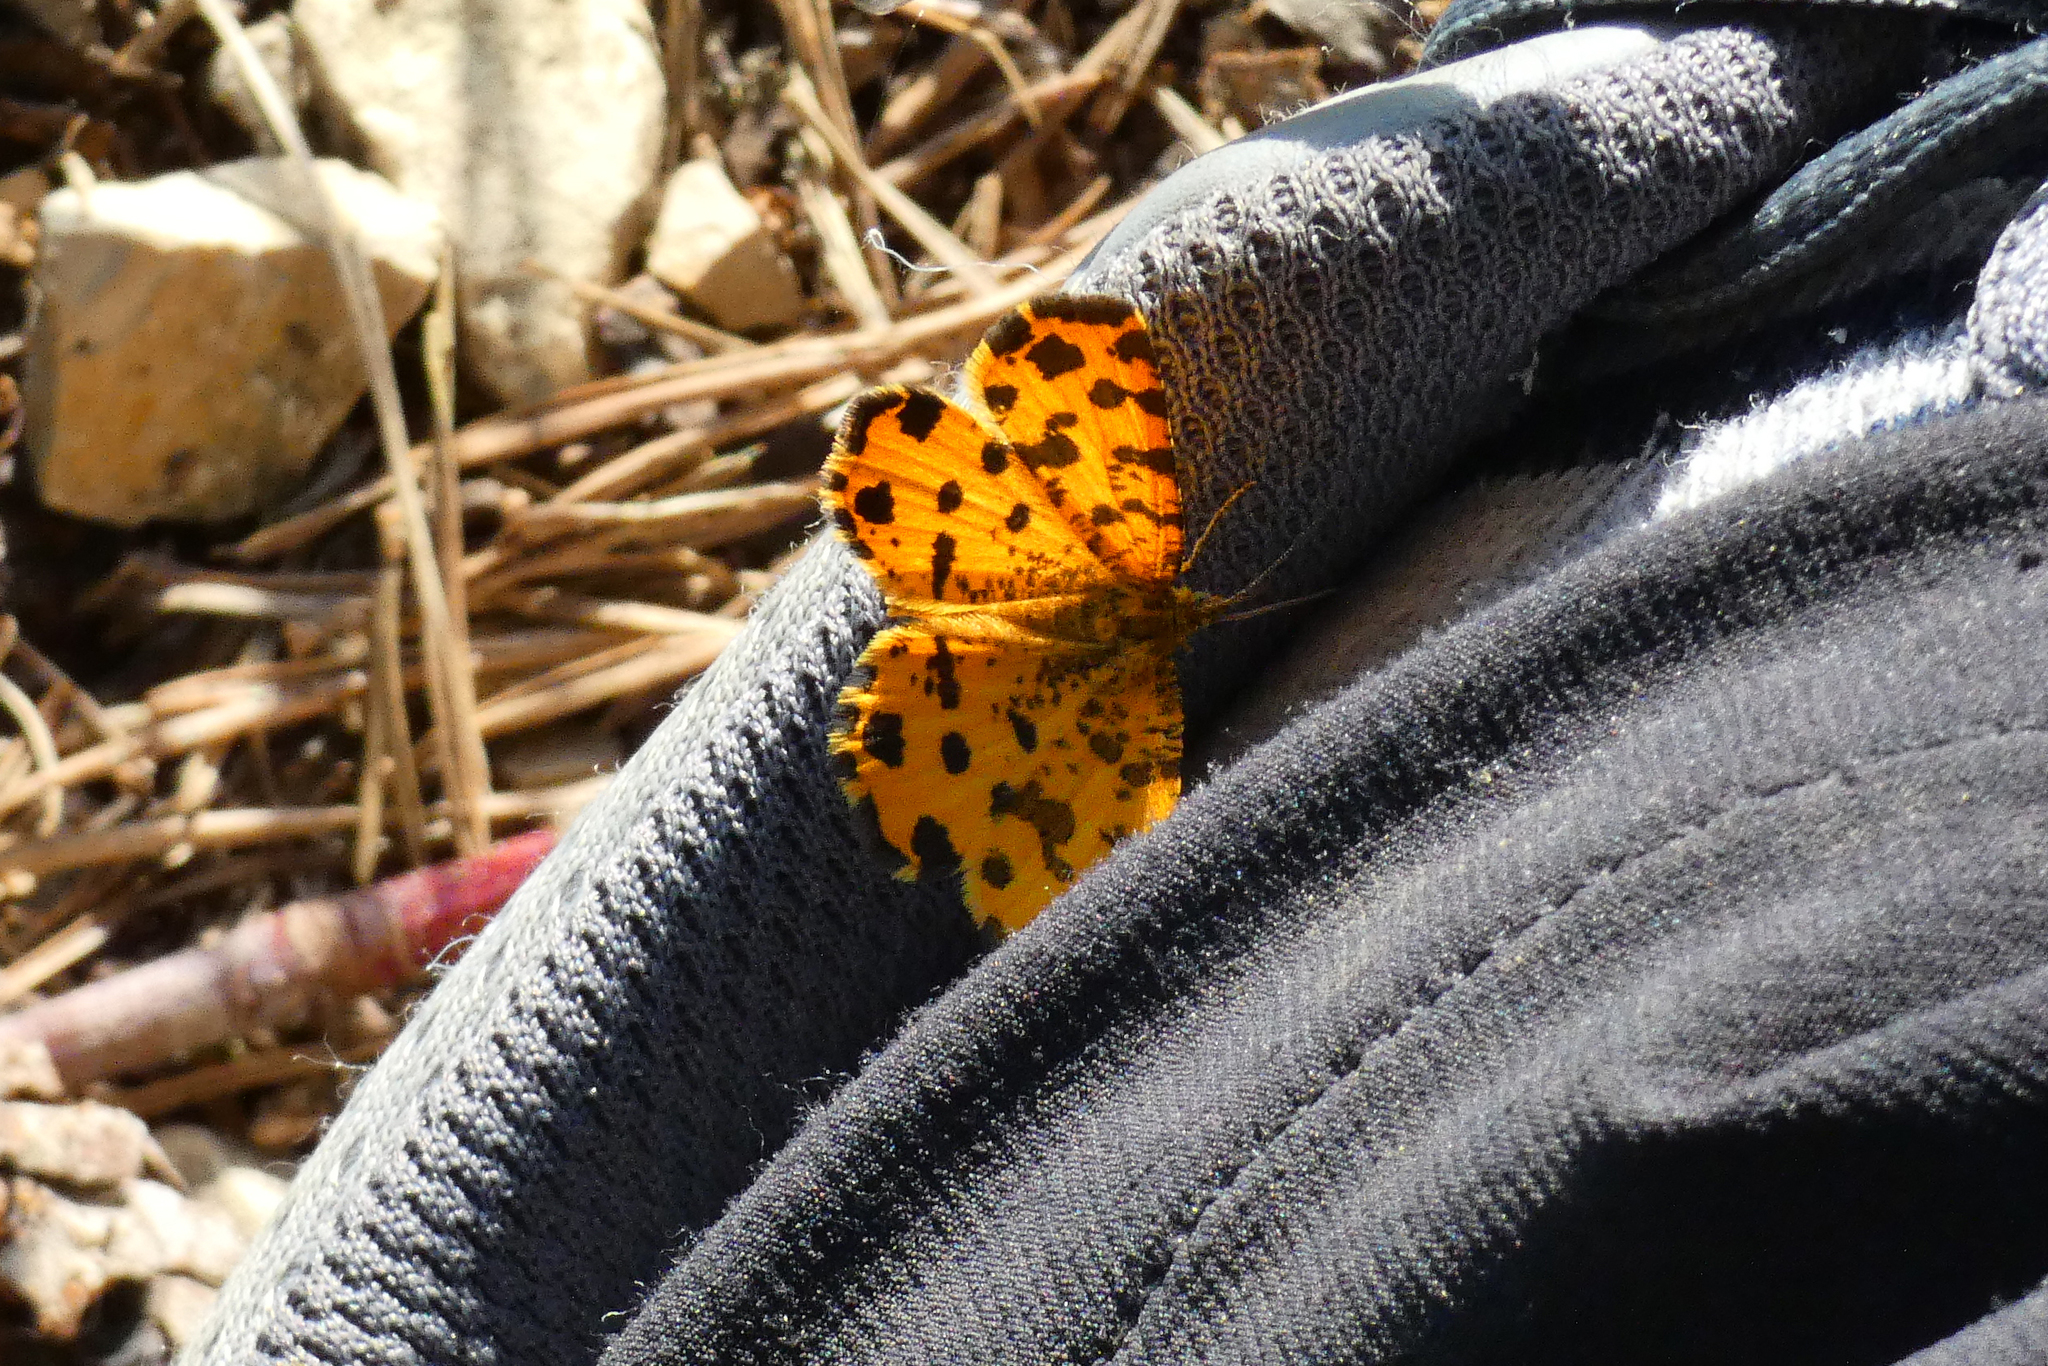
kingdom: Animalia
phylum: Arthropoda
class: Insecta
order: Lepidoptera
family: Geometridae
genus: Pseudopanthera
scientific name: Pseudopanthera macularia
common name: Speckled yellow
